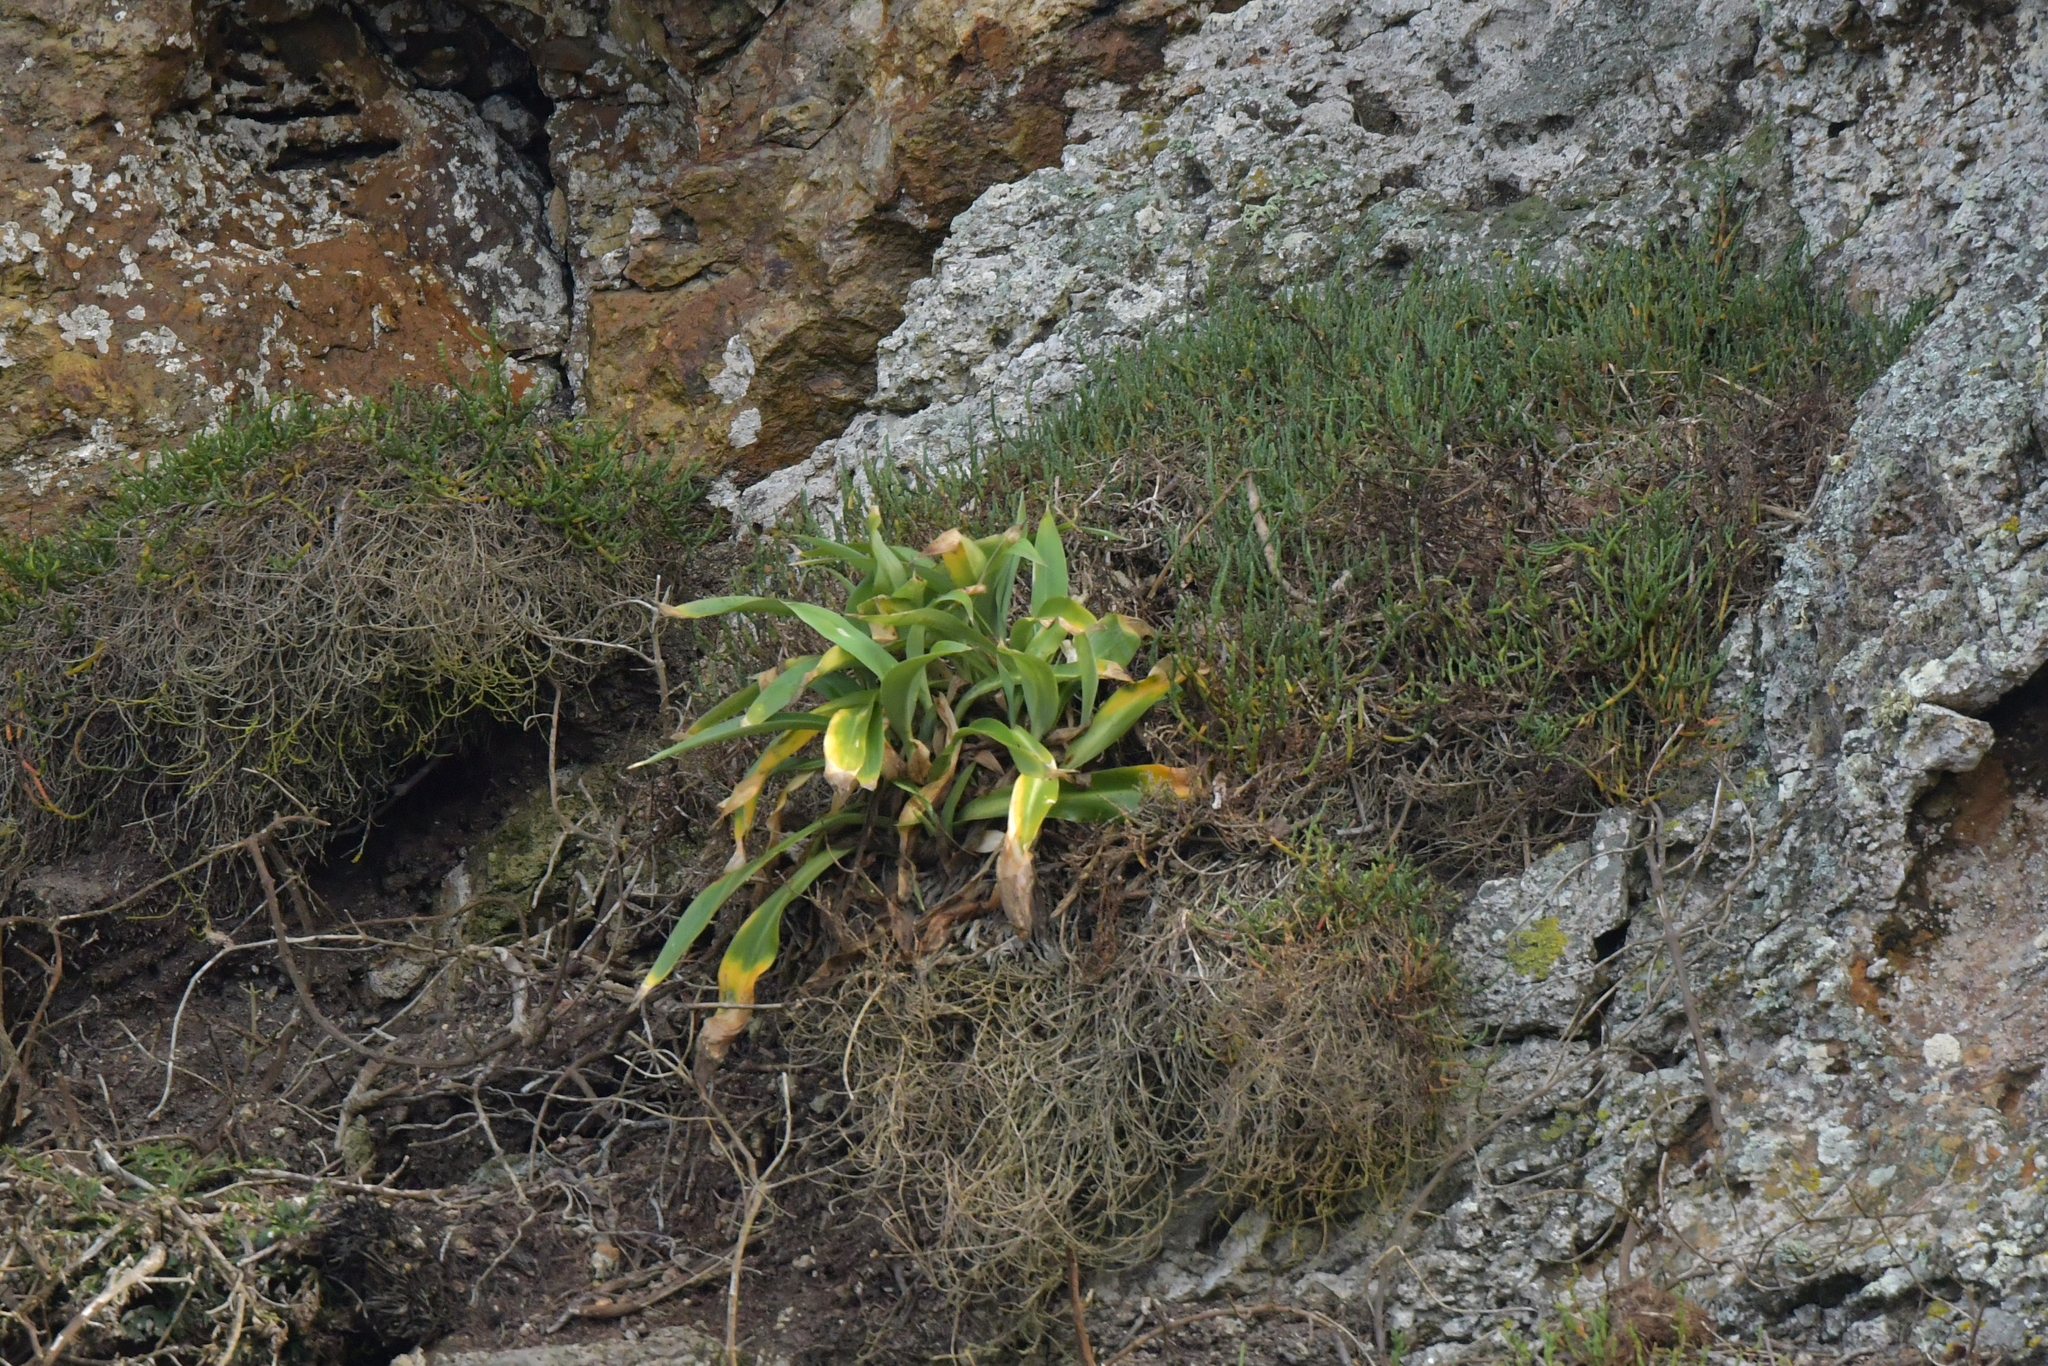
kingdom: Plantae
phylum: Tracheophyta
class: Liliopsida
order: Asparagales
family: Asparagaceae
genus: Arthropodium
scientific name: Arthropodium cirratum
